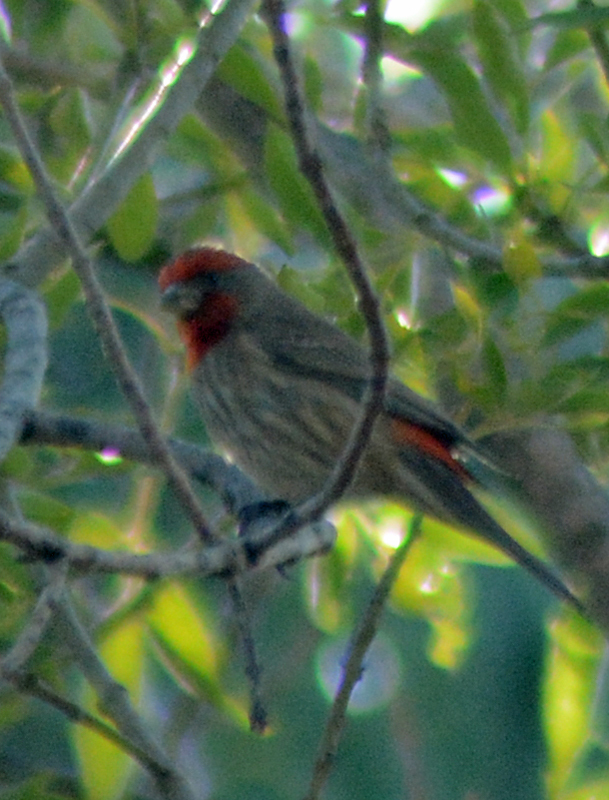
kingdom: Animalia
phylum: Chordata
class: Aves
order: Passeriformes
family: Fringillidae
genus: Haemorhous
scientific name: Haemorhous mexicanus
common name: House finch
